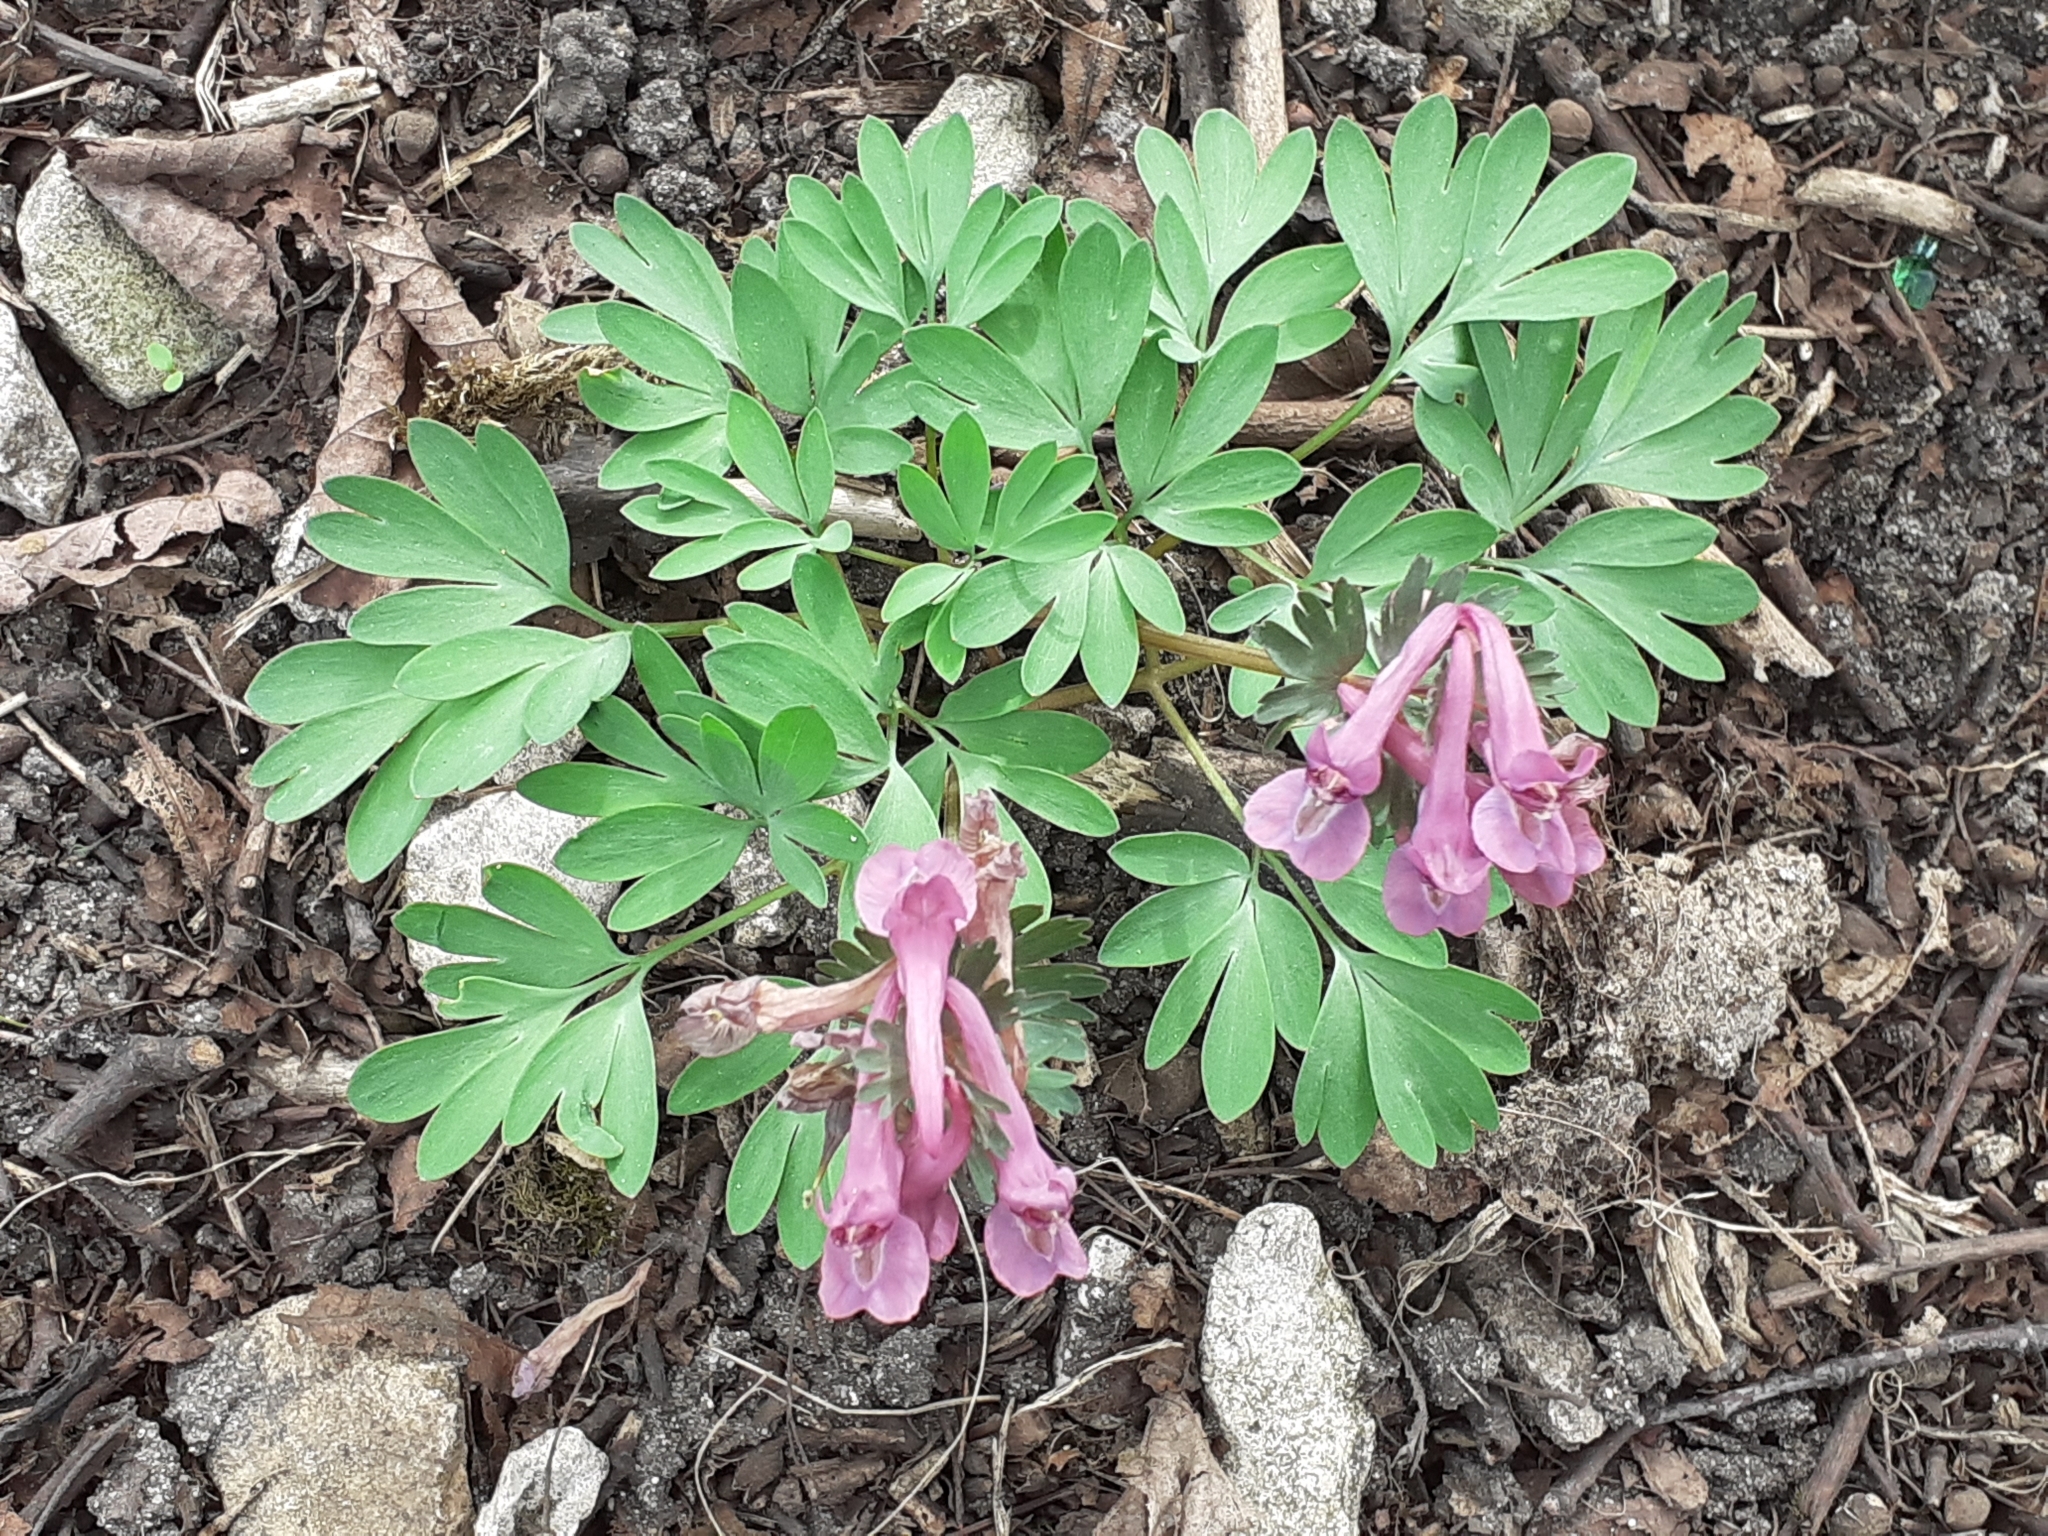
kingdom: Plantae
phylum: Tracheophyta
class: Magnoliopsida
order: Ranunculales
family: Papaveraceae
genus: Corydalis
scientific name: Corydalis solida
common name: Bird-in-a-bush
